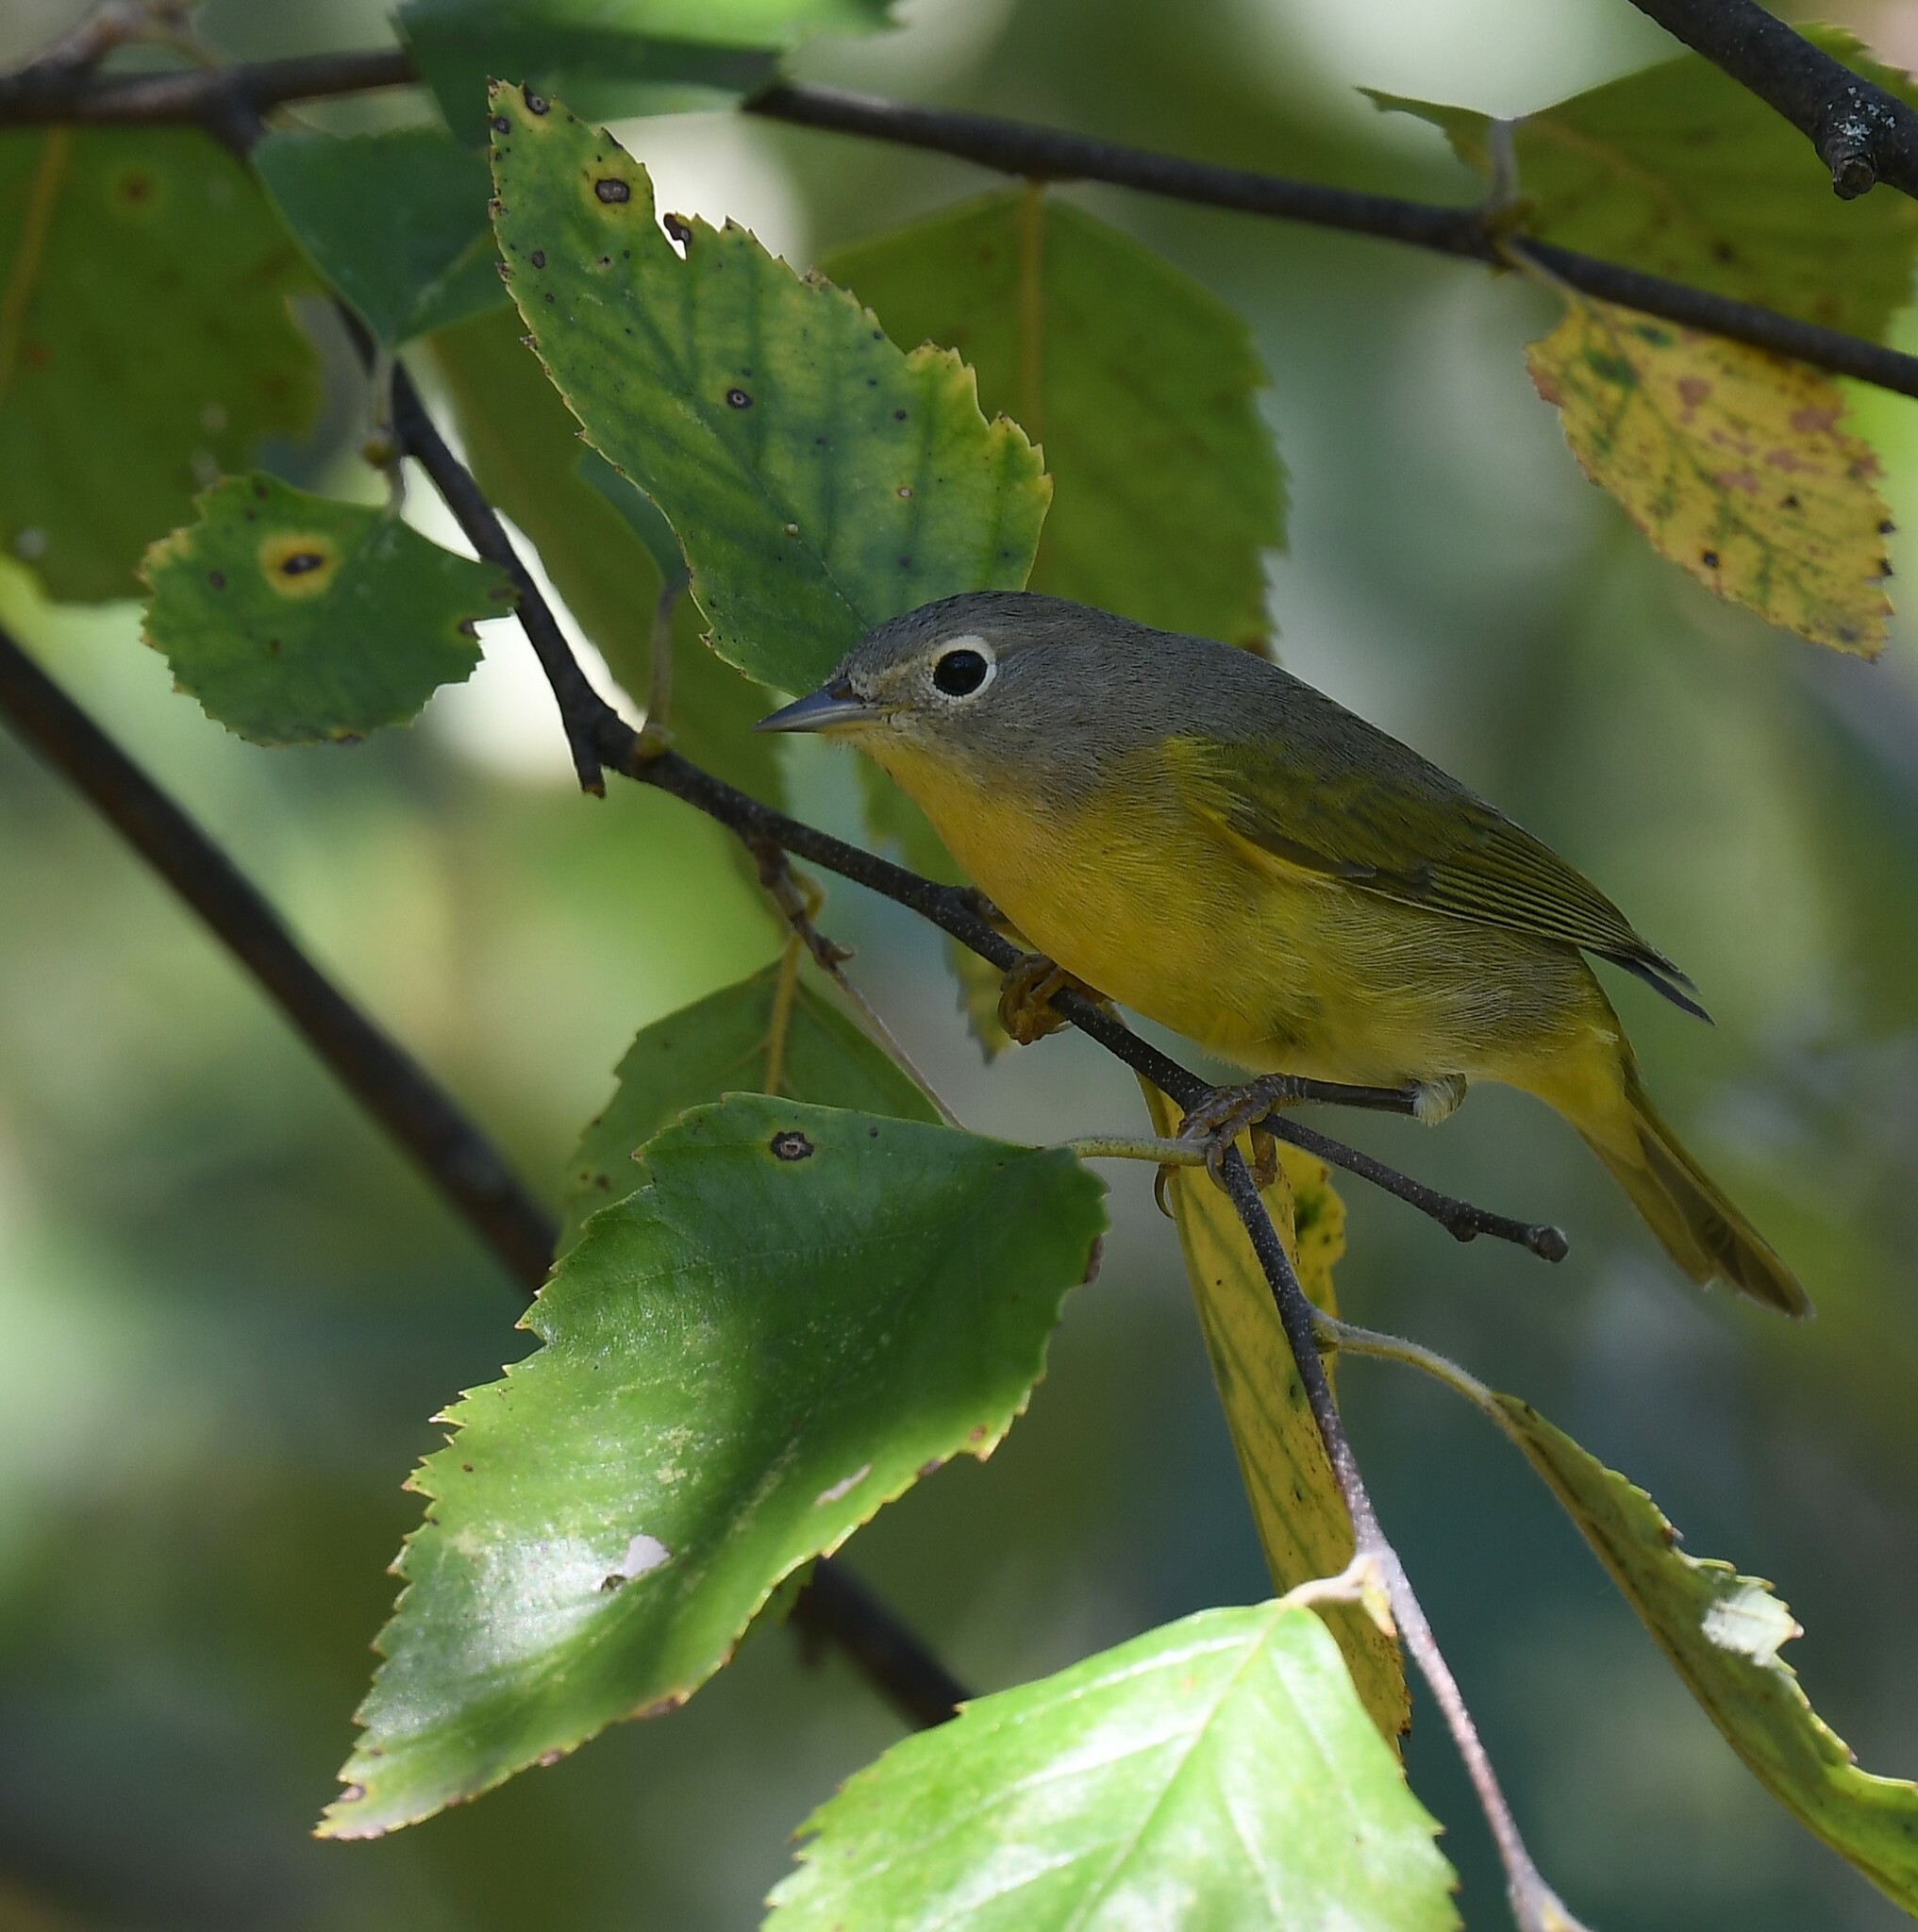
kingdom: Animalia
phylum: Chordata
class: Aves
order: Passeriformes
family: Parulidae
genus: Leiothlypis
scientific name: Leiothlypis ruficapilla
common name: Nashville warbler
